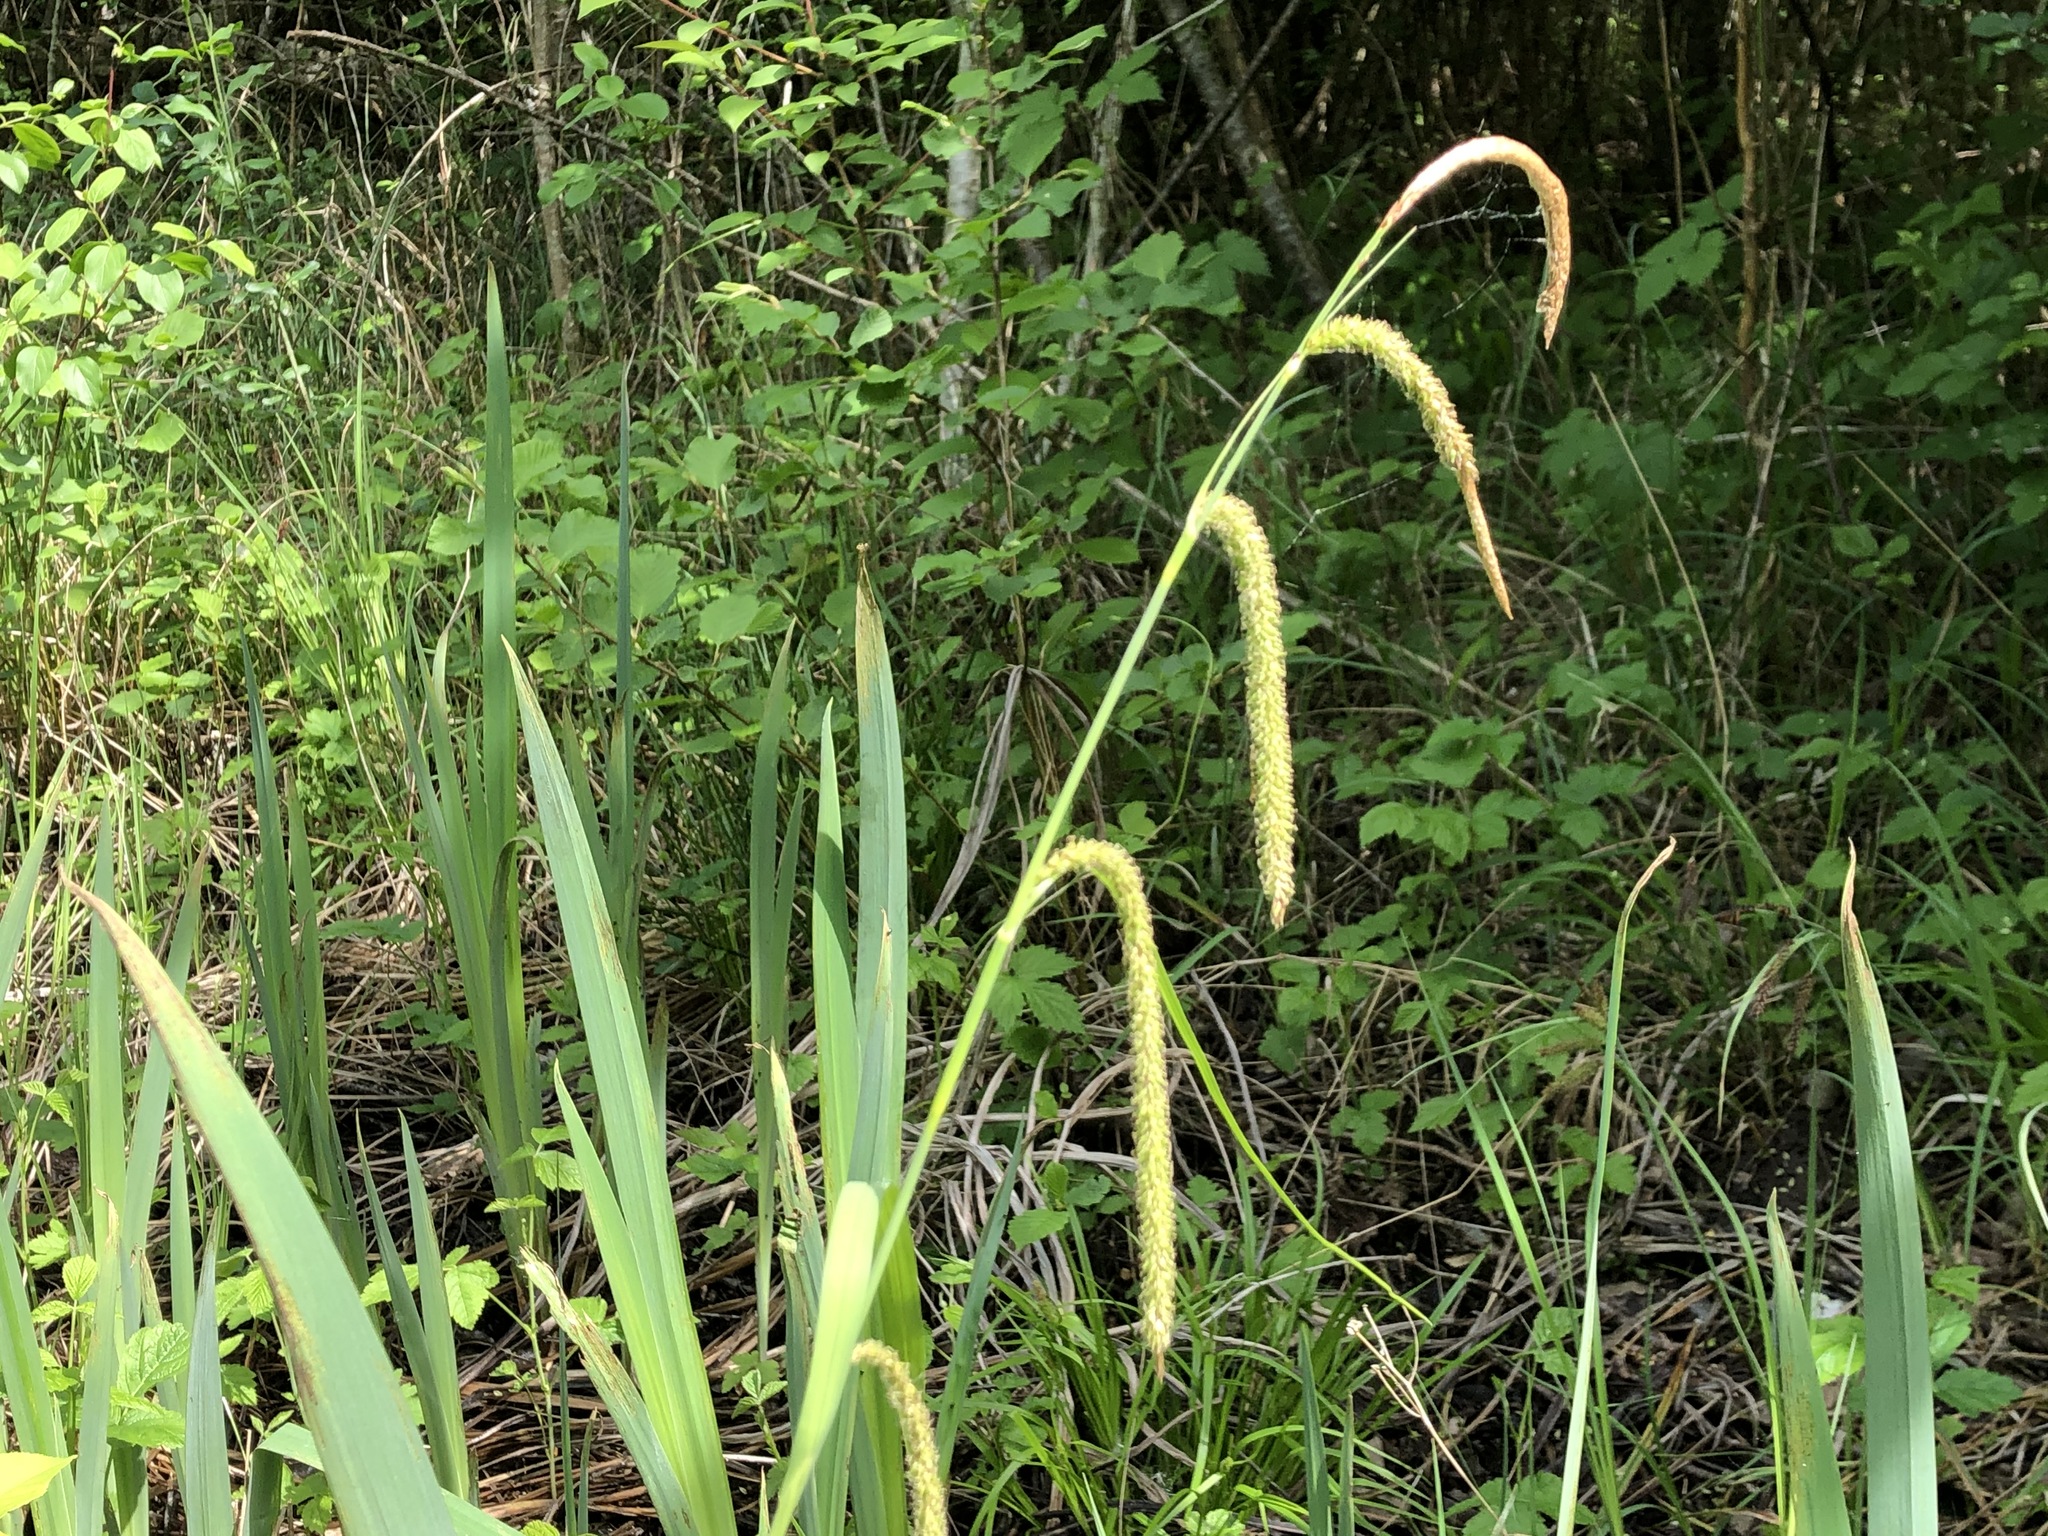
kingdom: Plantae
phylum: Tracheophyta
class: Liliopsida
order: Poales
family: Cyperaceae
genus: Carex
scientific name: Carex pendula
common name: Pendulous sedge
